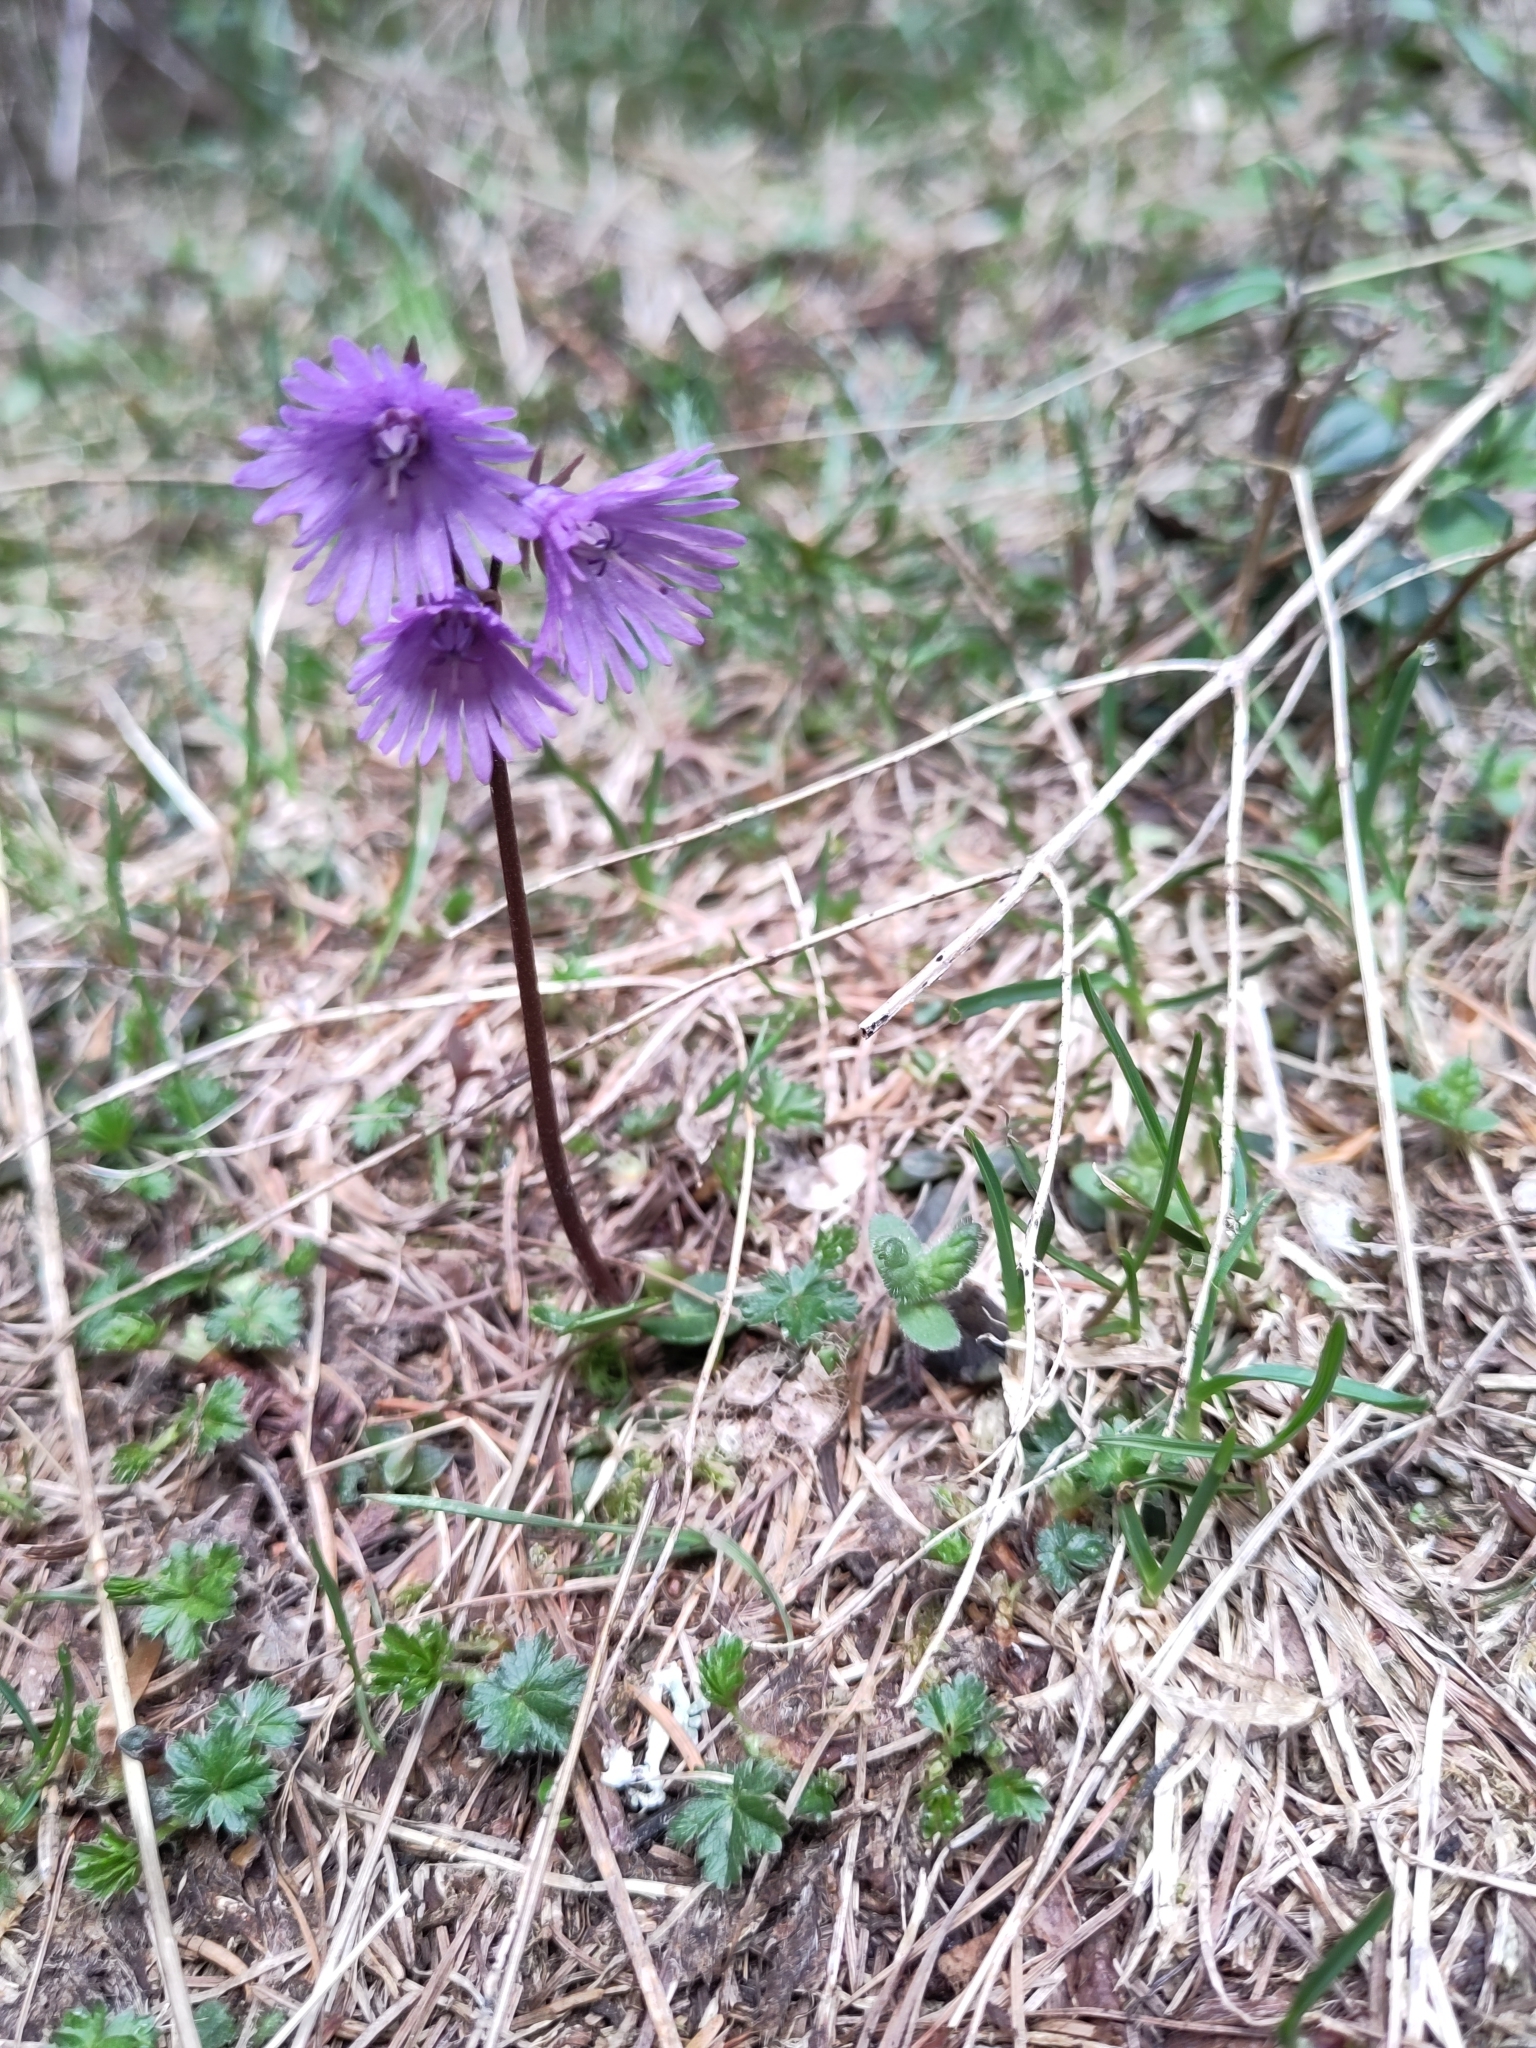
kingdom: Plantae
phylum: Tracheophyta
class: Magnoliopsida
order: Ericales
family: Primulaceae
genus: Soldanella
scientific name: Soldanella alpina
